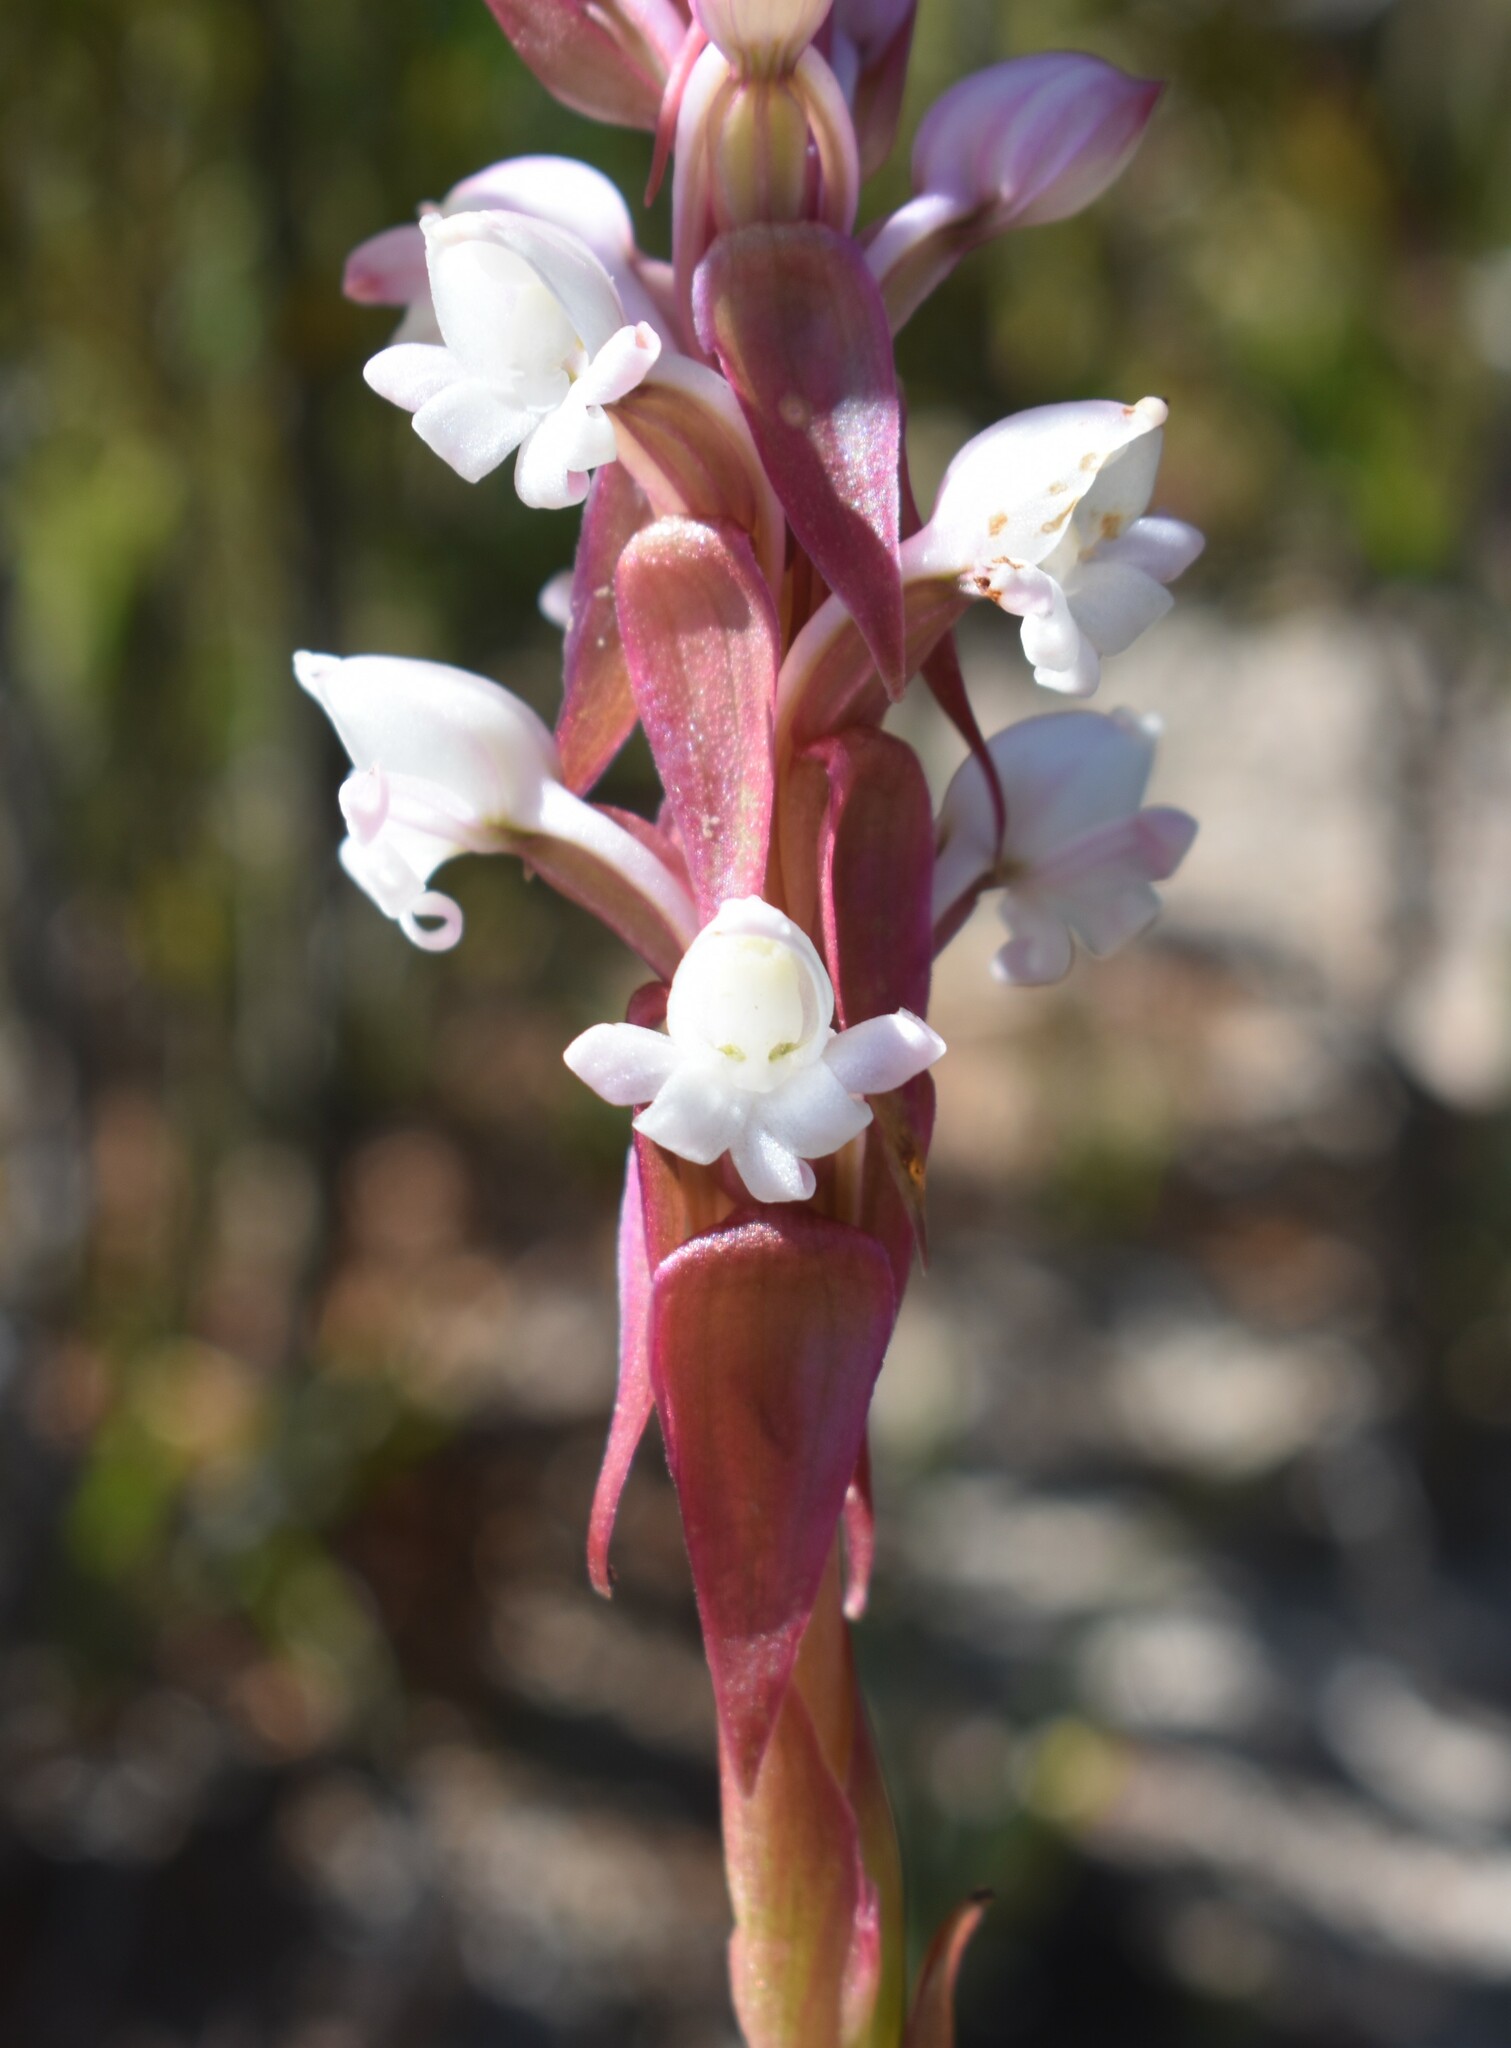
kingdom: Plantae
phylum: Tracheophyta
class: Liliopsida
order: Asparagales
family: Orchidaceae
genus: Satyrium
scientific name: Satyrium acuminatum
